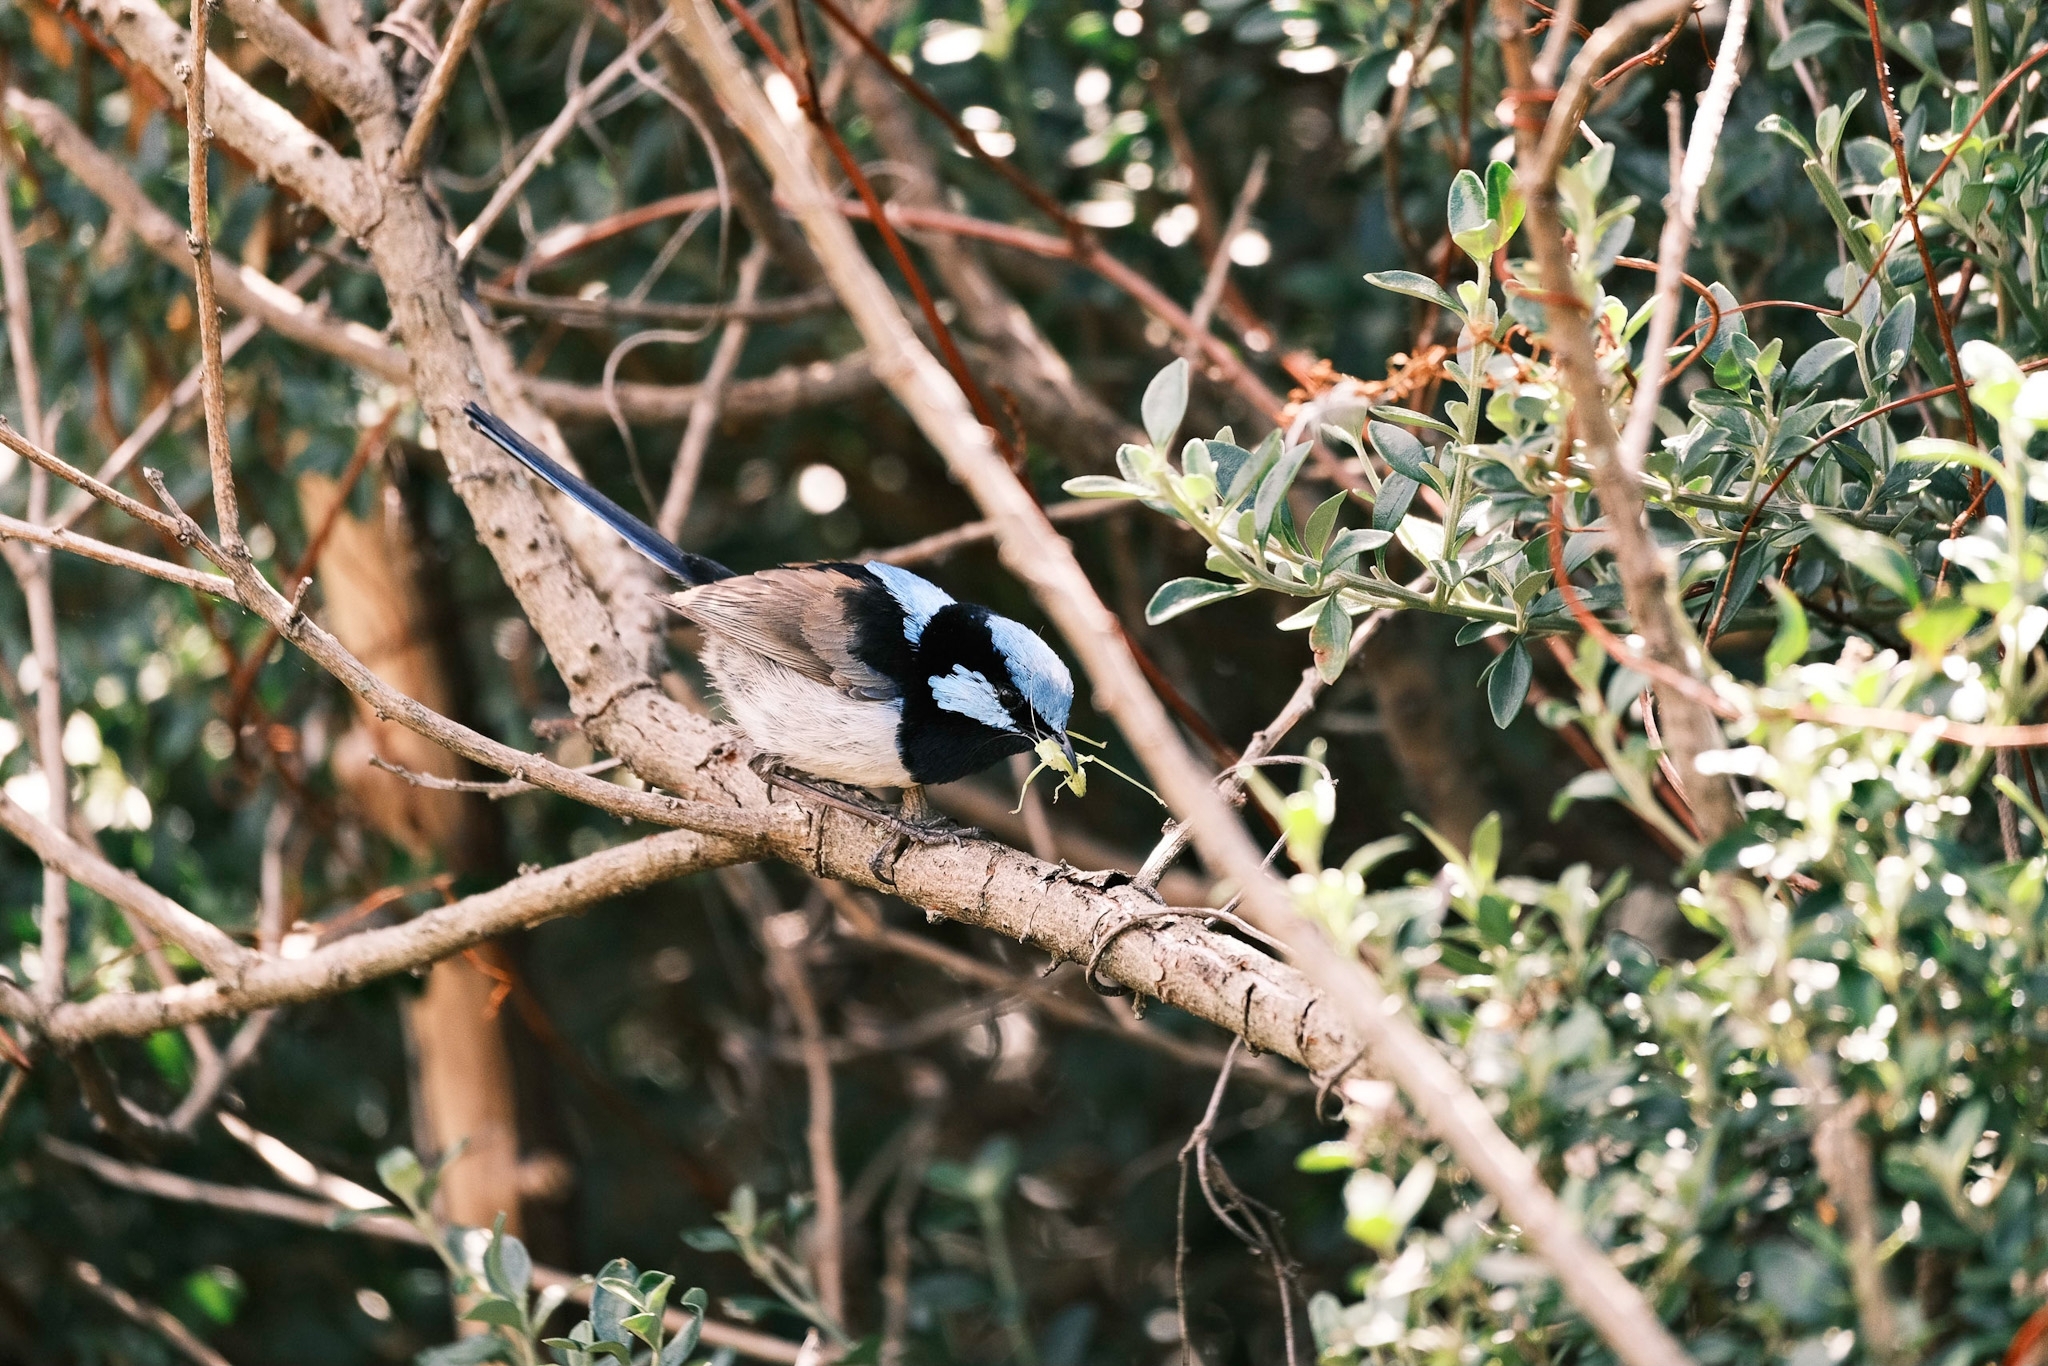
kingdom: Animalia
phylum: Chordata
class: Aves
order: Passeriformes
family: Maluridae
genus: Malurus
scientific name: Malurus cyaneus
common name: Superb fairywren
